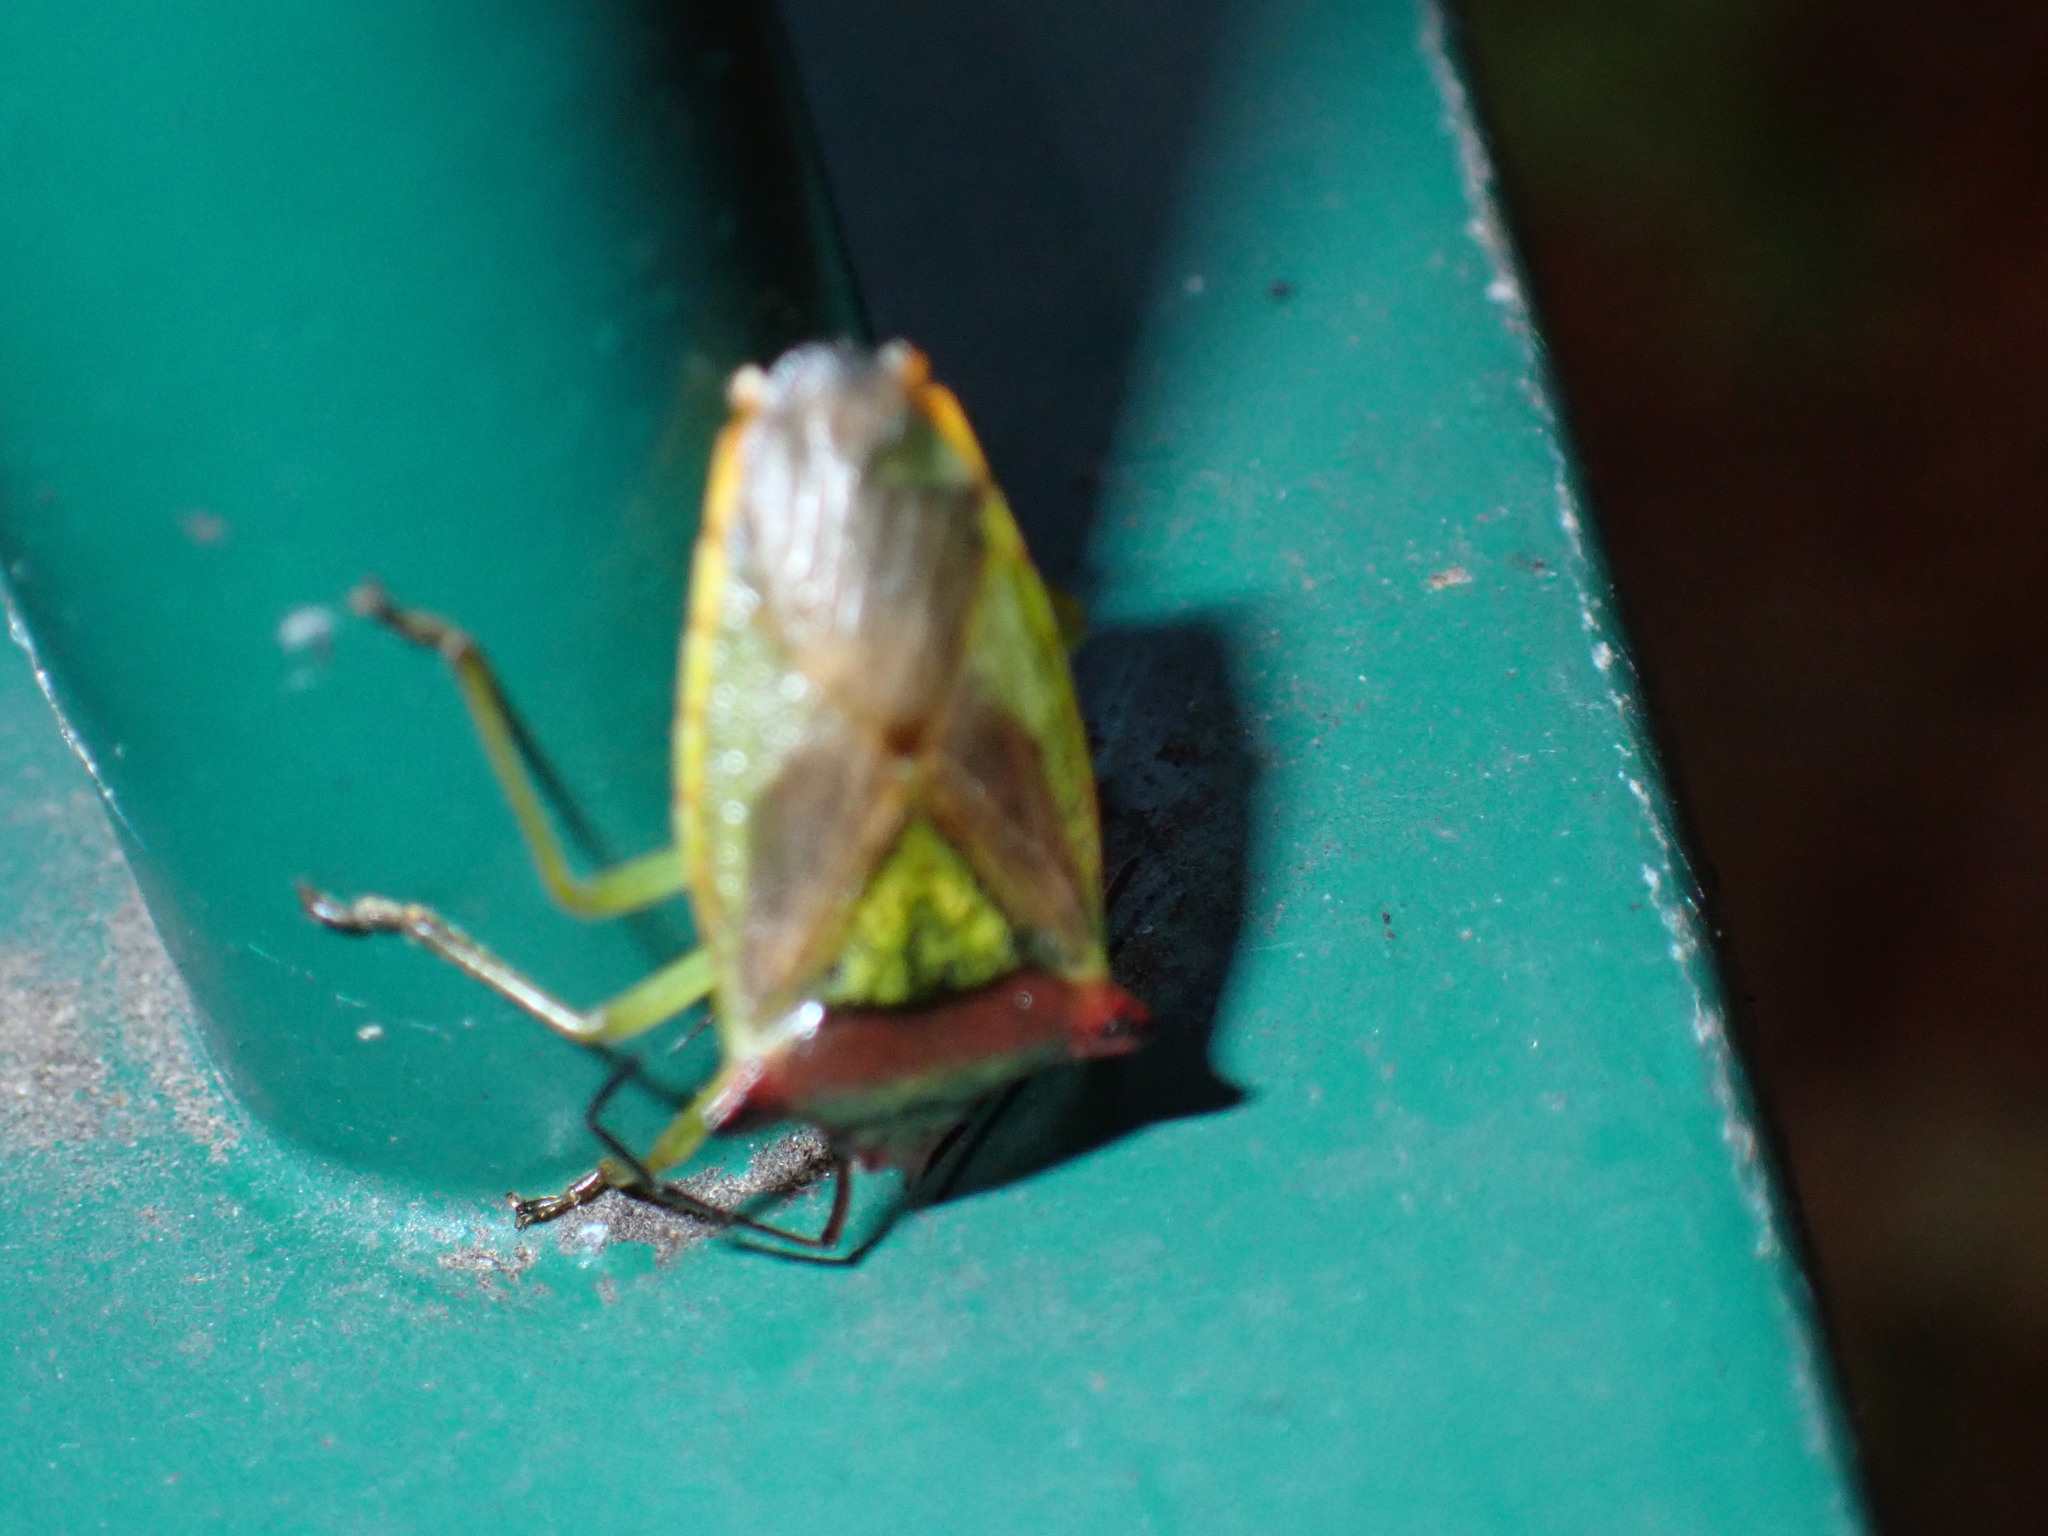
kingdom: Animalia
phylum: Arthropoda
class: Insecta
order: Hemiptera
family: Acanthosomatidae
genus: Acanthosoma
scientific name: Acanthosoma haemorrhoidale
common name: Hawthorn shieldbug
